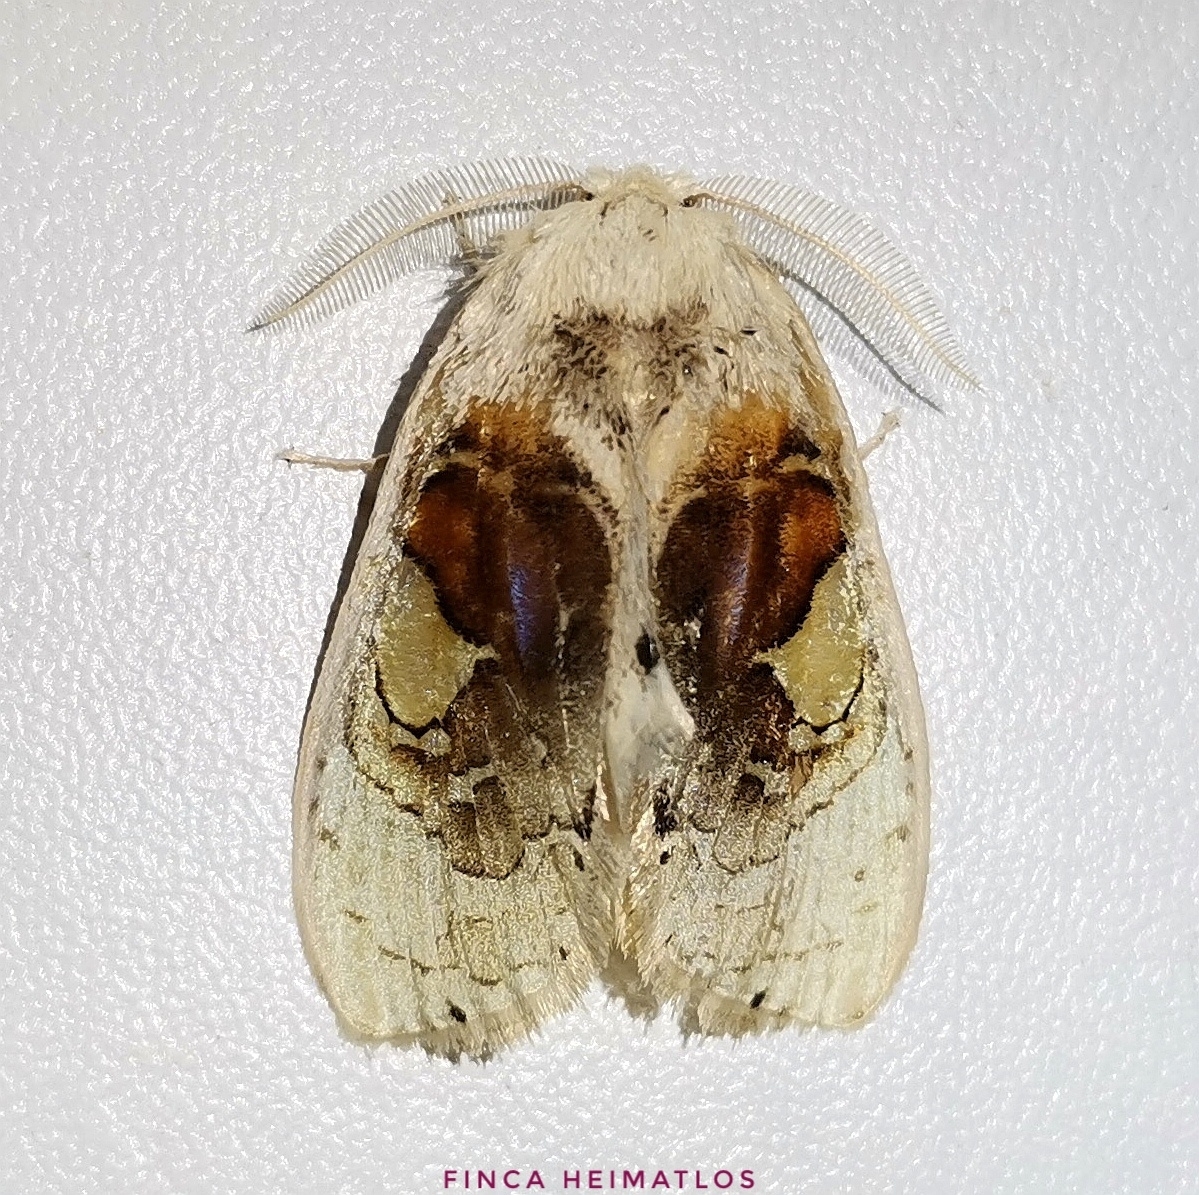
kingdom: Animalia
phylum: Arthropoda
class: Insecta
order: Lepidoptera
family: Psychidae
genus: Arrhenophanes
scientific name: Arrhenophanes perspicilla
